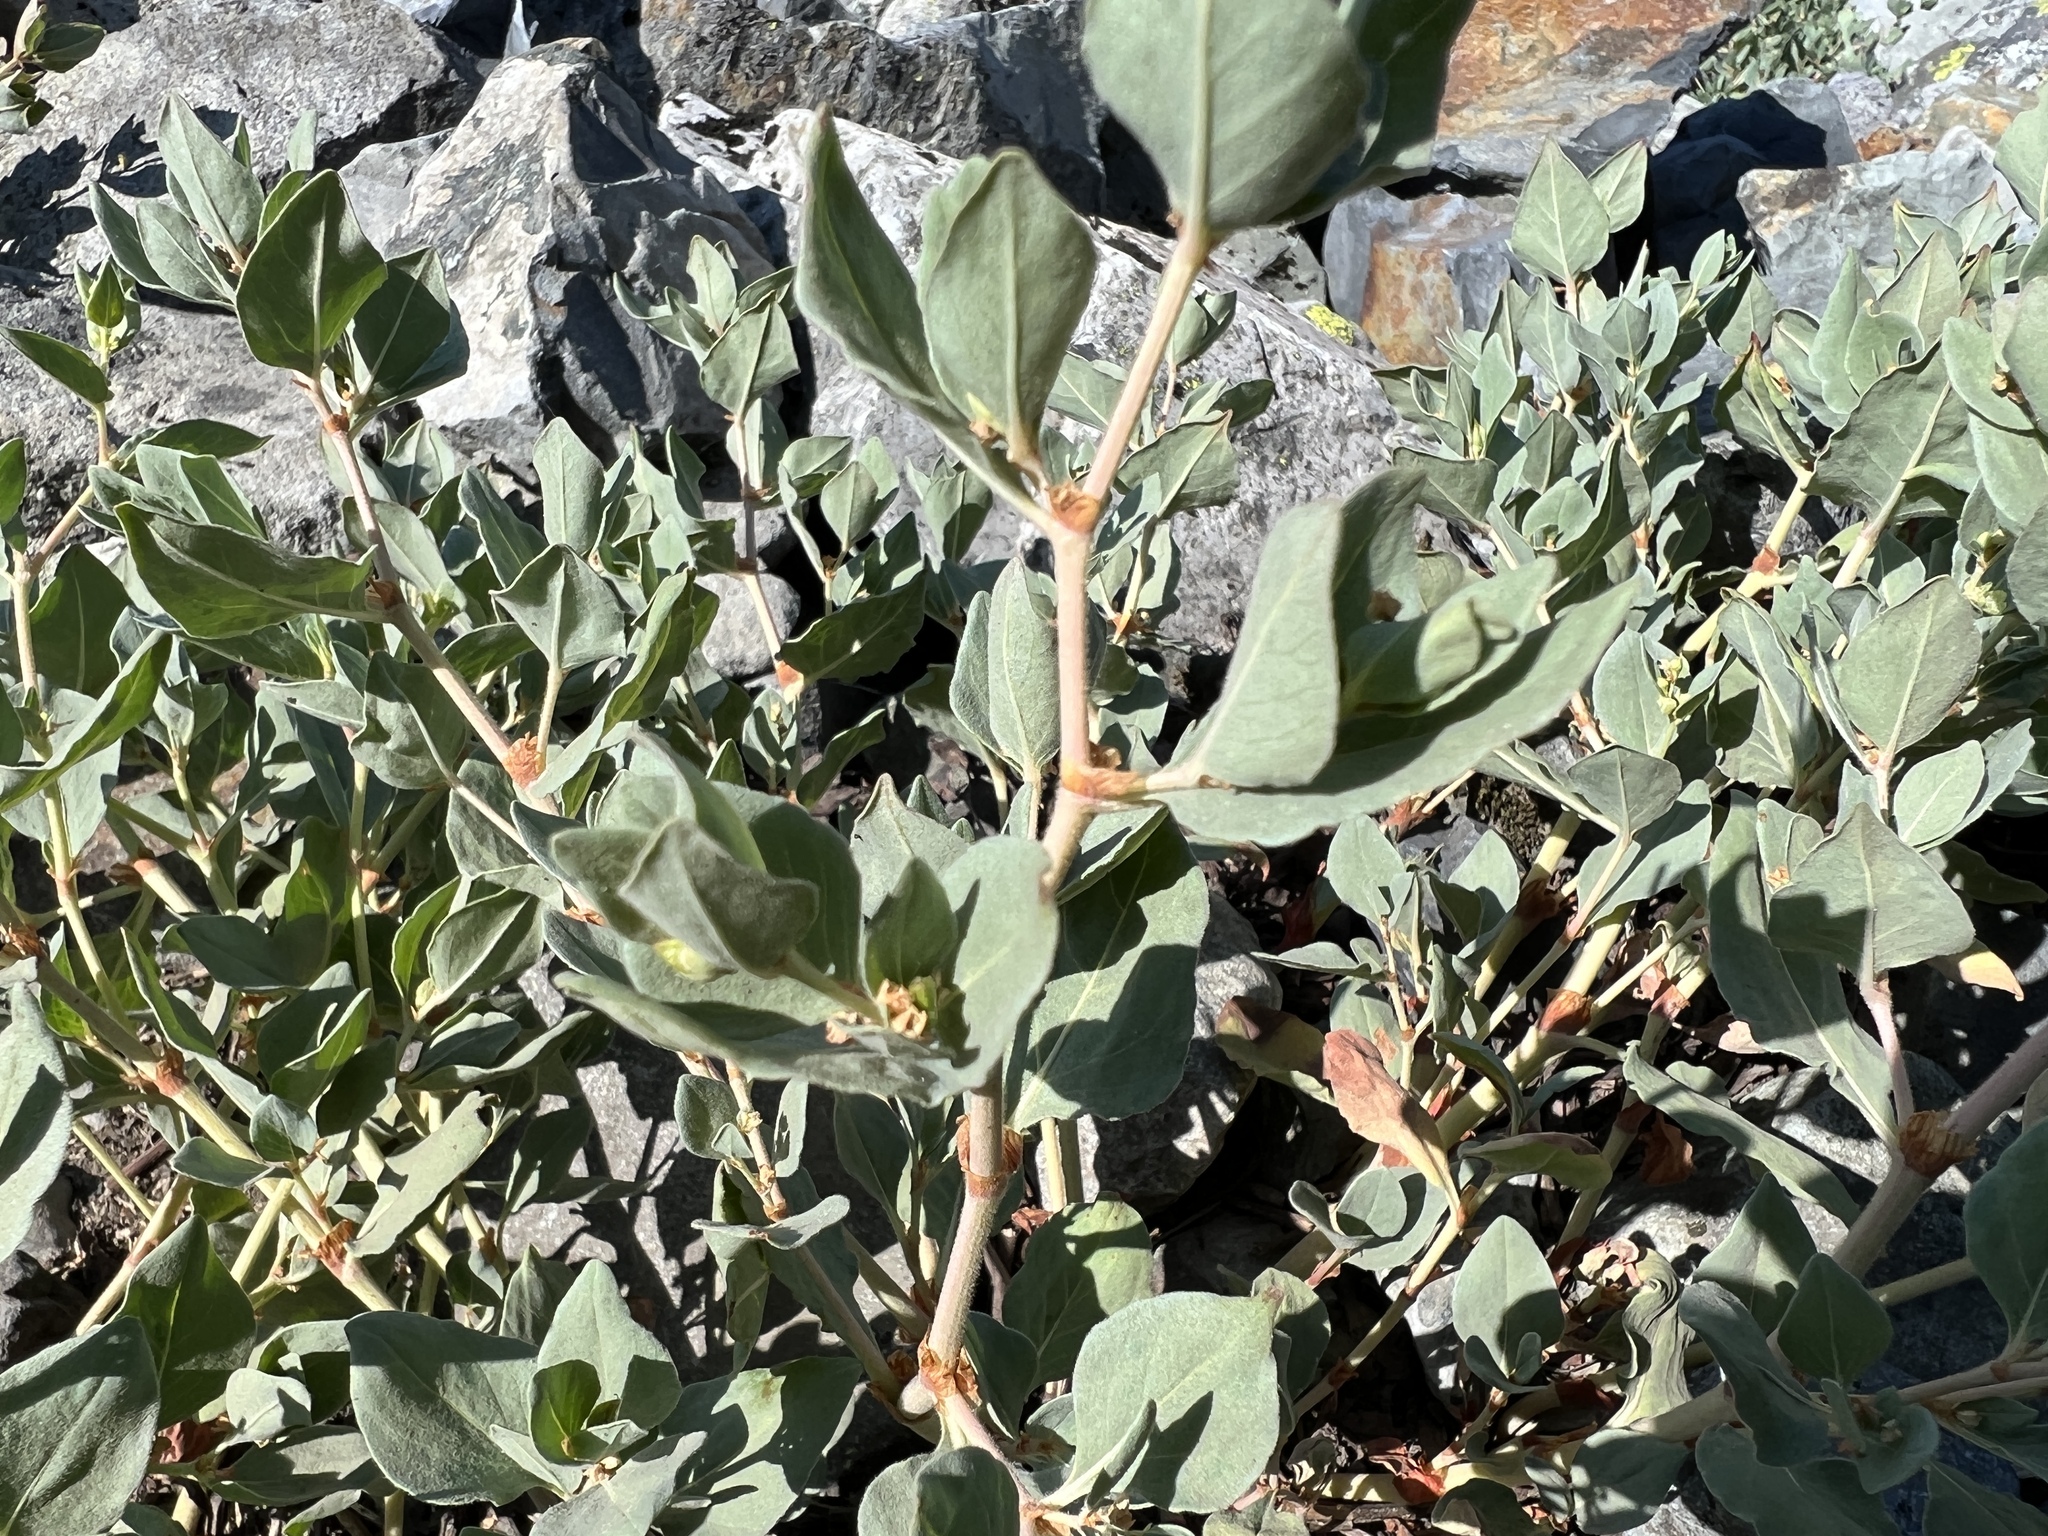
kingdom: Plantae
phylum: Tracheophyta
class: Magnoliopsida
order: Caryophyllales
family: Polygonaceae
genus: Koenigia
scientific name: Koenigia davisiae
